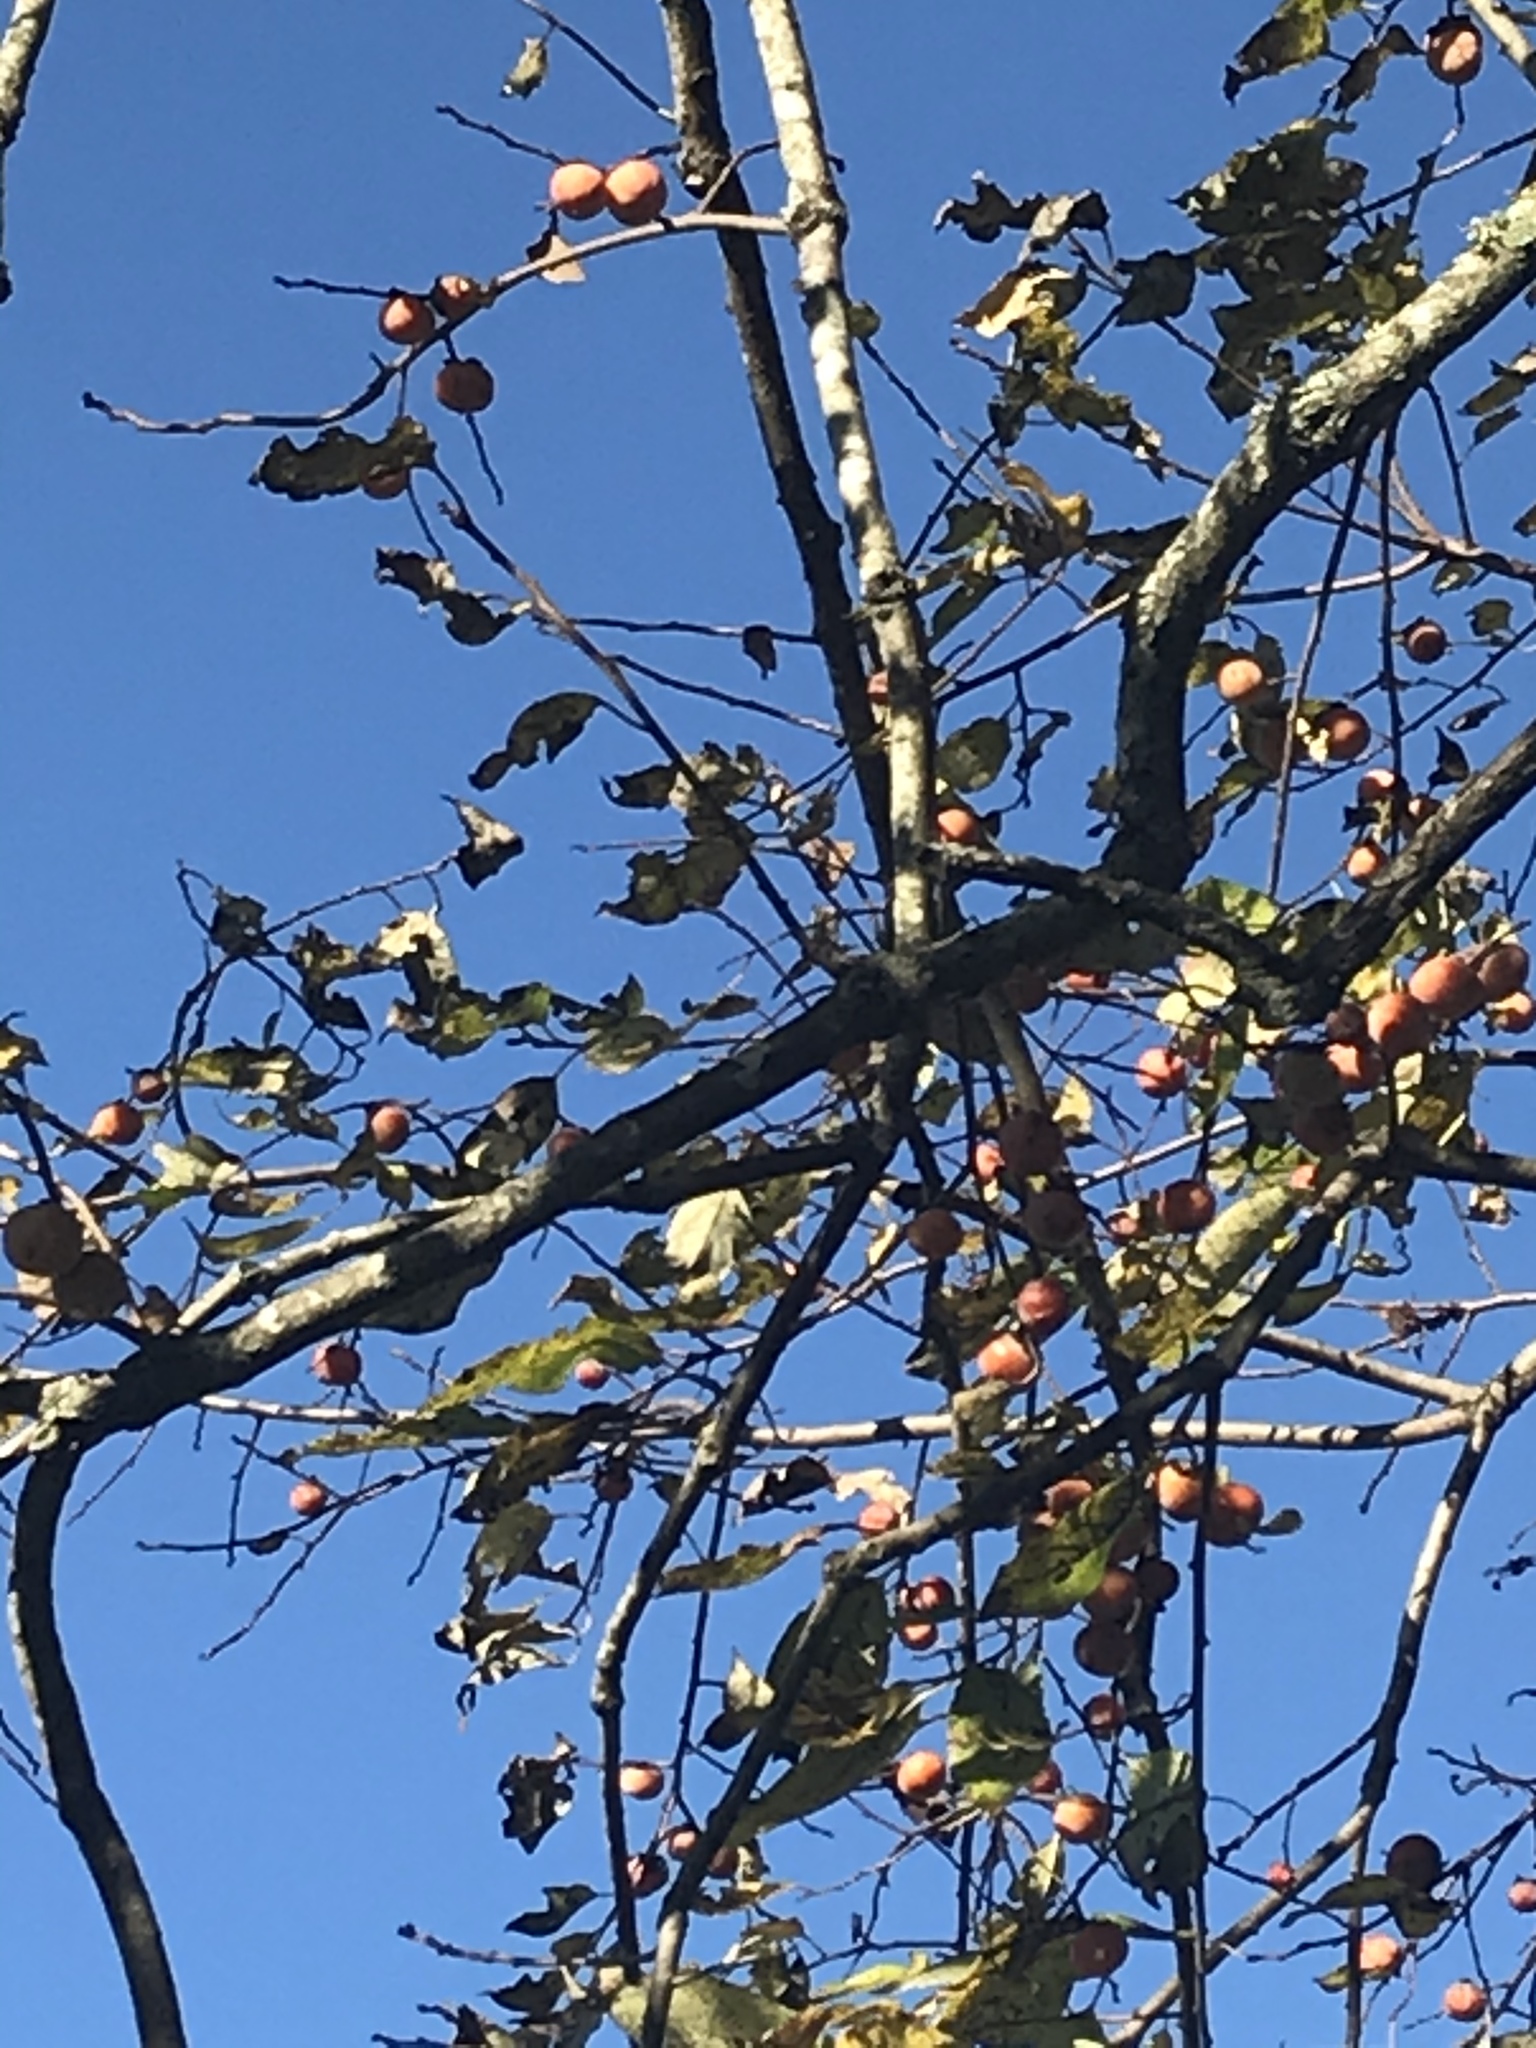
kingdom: Plantae
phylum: Tracheophyta
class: Magnoliopsida
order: Ericales
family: Ebenaceae
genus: Diospyros
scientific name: Diospyros virginiana
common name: Persimmon
